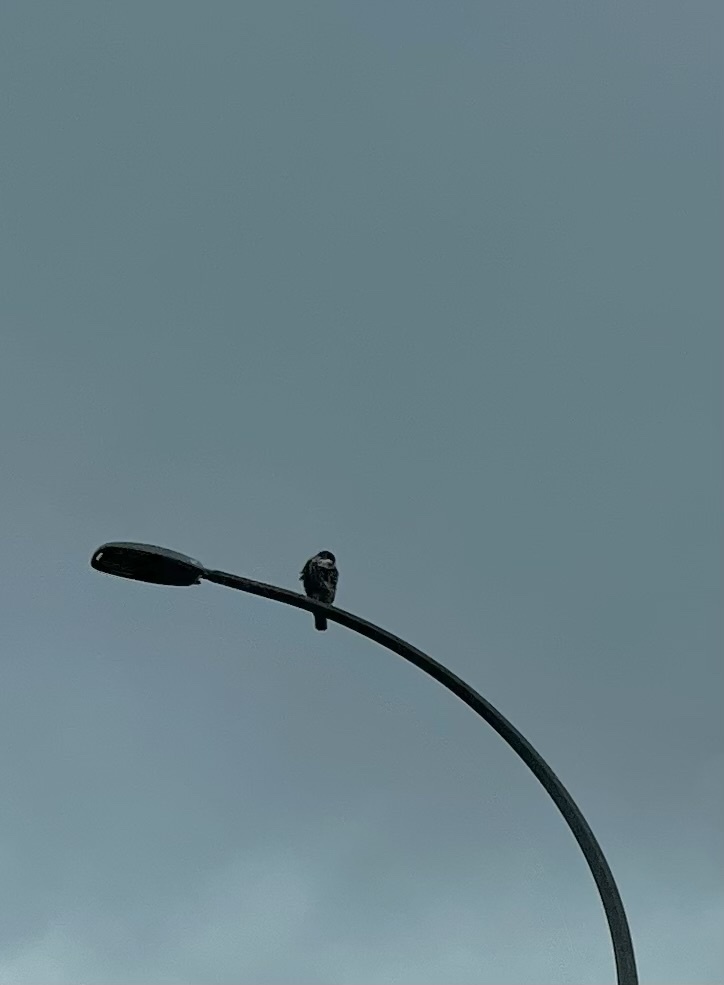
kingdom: Animalia
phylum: Chordata
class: Aves
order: Accipitriformes
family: Accipitridae
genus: Buteo
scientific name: Buteo jamaicensis
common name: Red-tailed hawk
